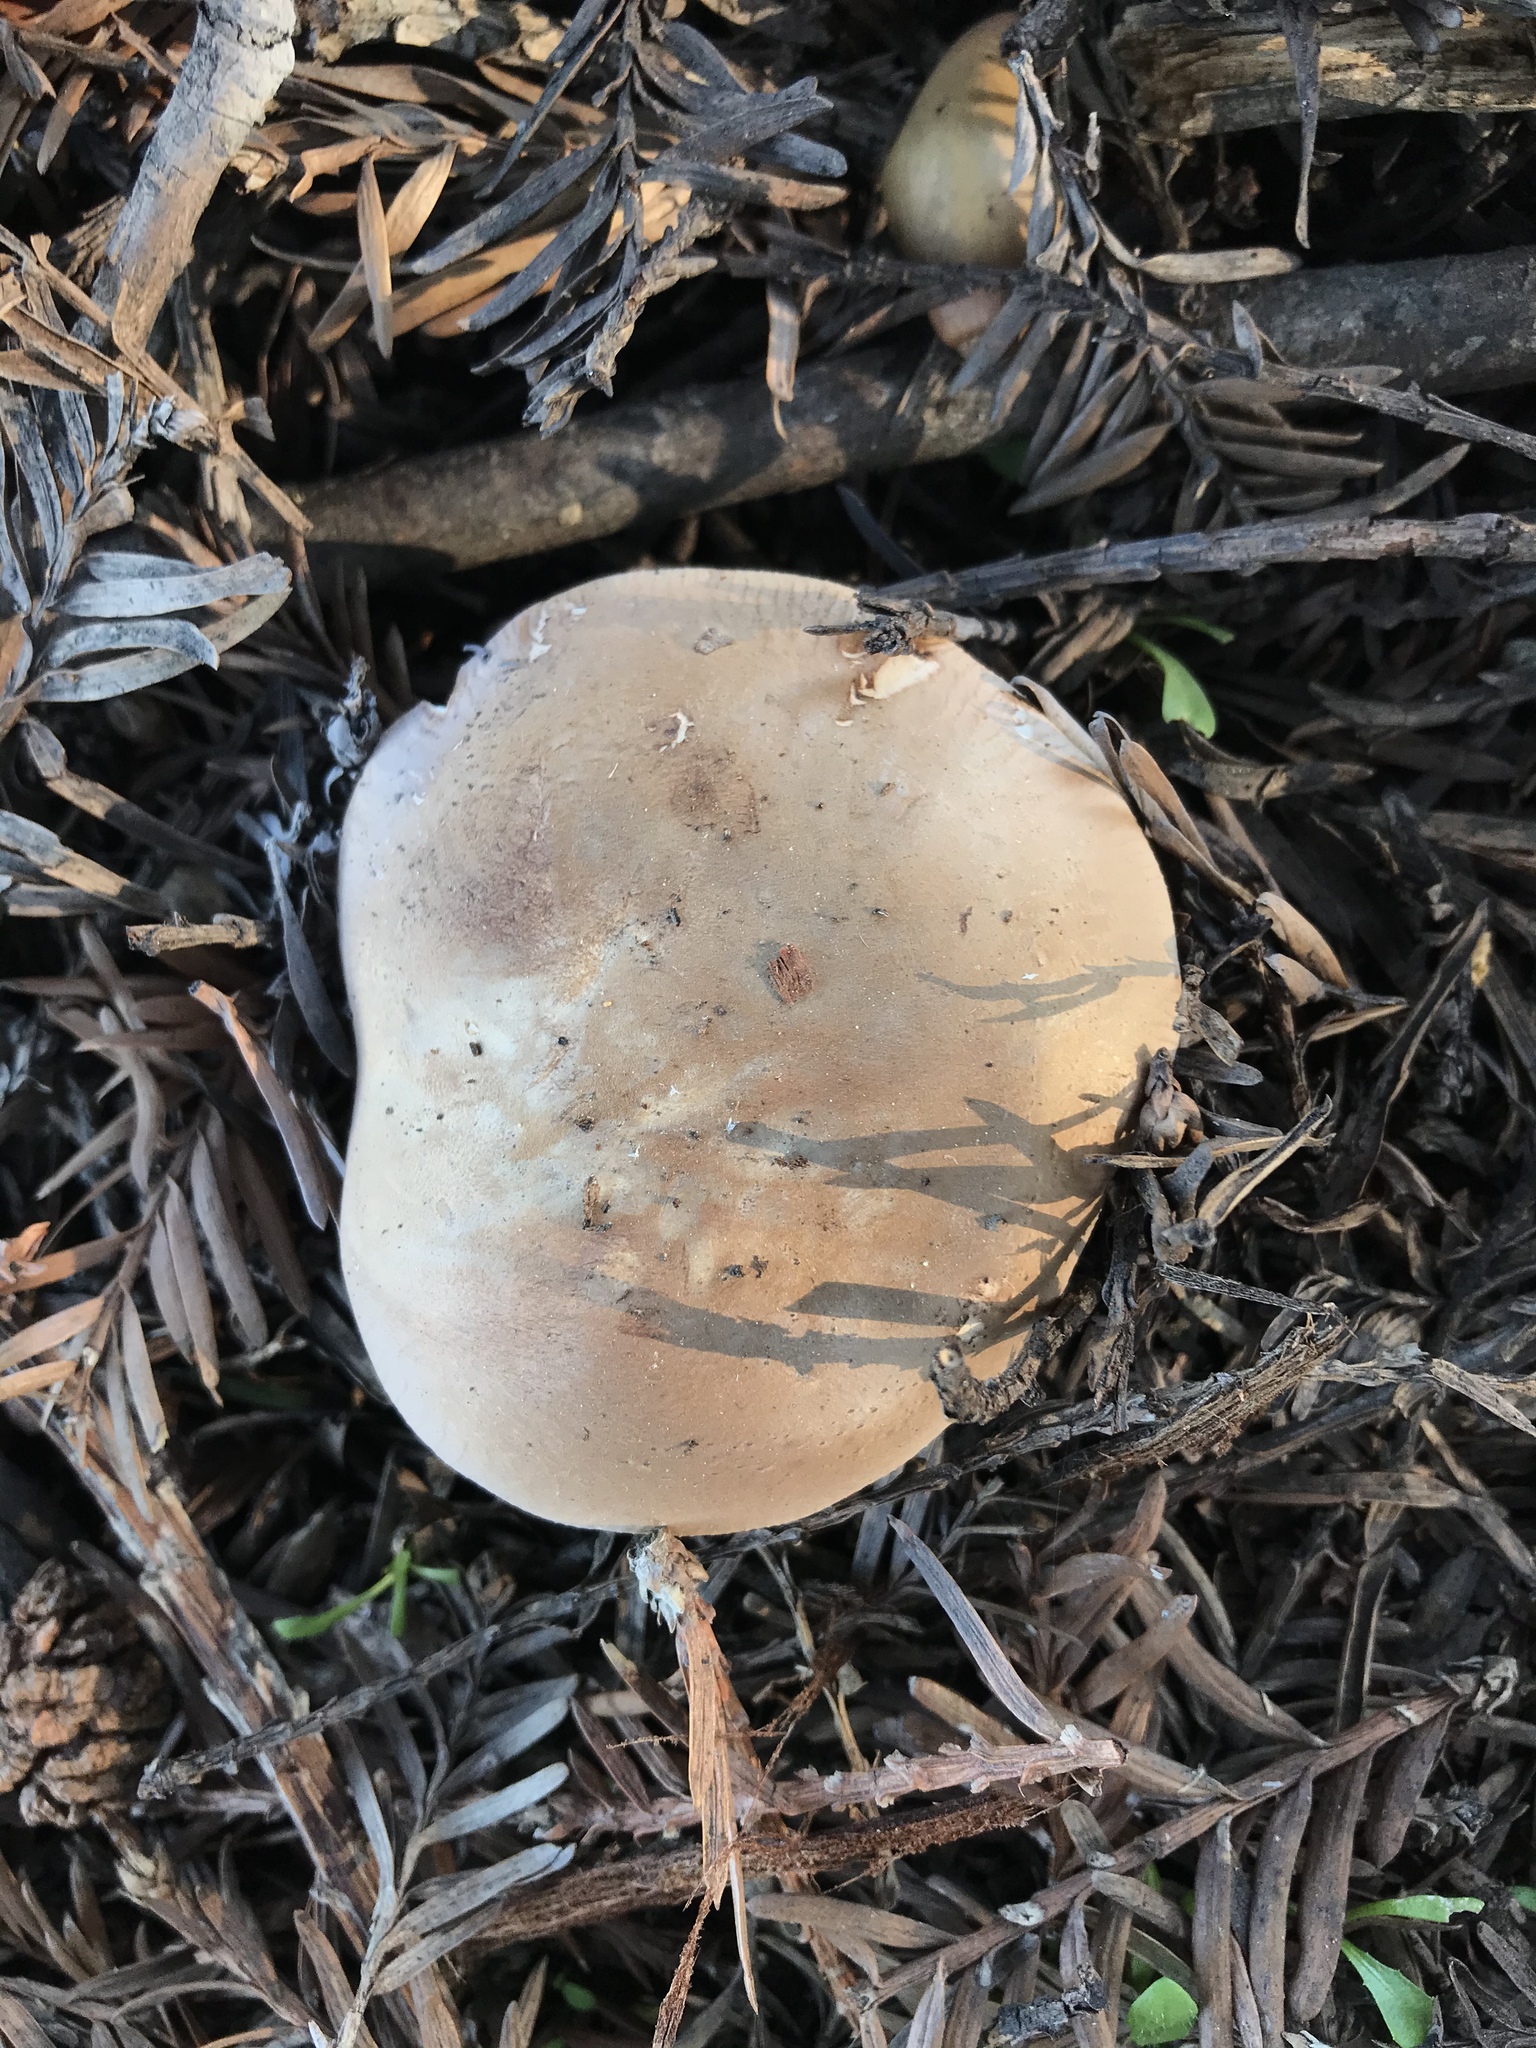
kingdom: Fungi
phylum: Basidiomycota
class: Agaricomycetes
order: Agaricales
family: Tricholomataceae
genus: Leucopaxillus
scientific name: Leucopaxillus gentianeus
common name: Bitter funnel
